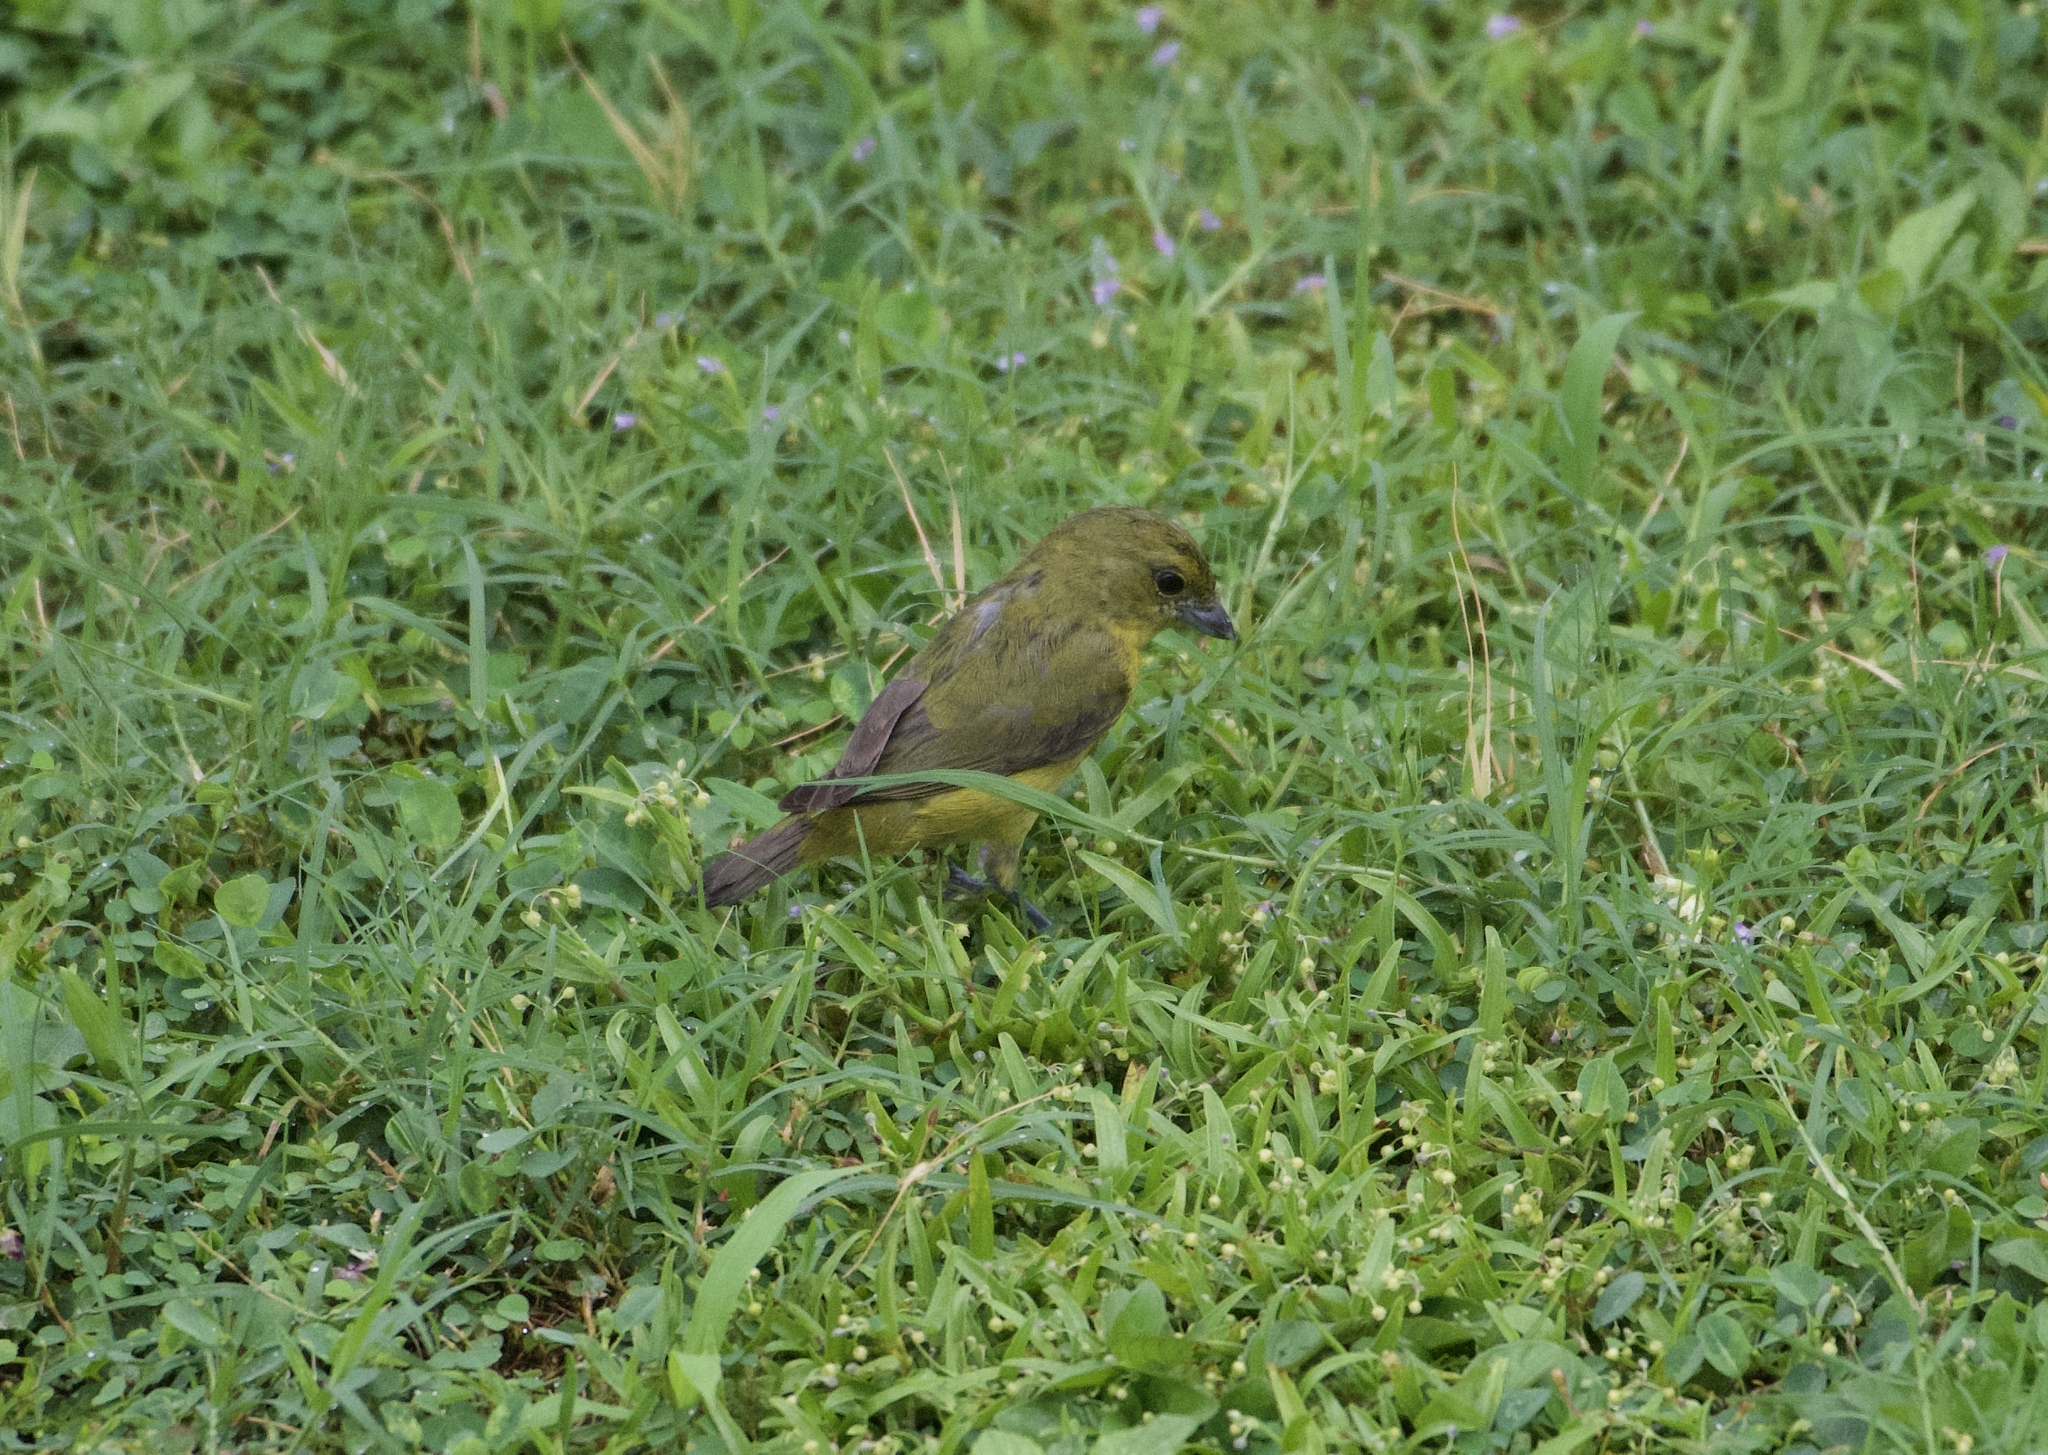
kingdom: Animalia
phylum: Chordata
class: Aves
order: Passeriformes
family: Fringillidae
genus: Euphonia
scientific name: Euphonia laniirostris
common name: Thick-billed euphonia
